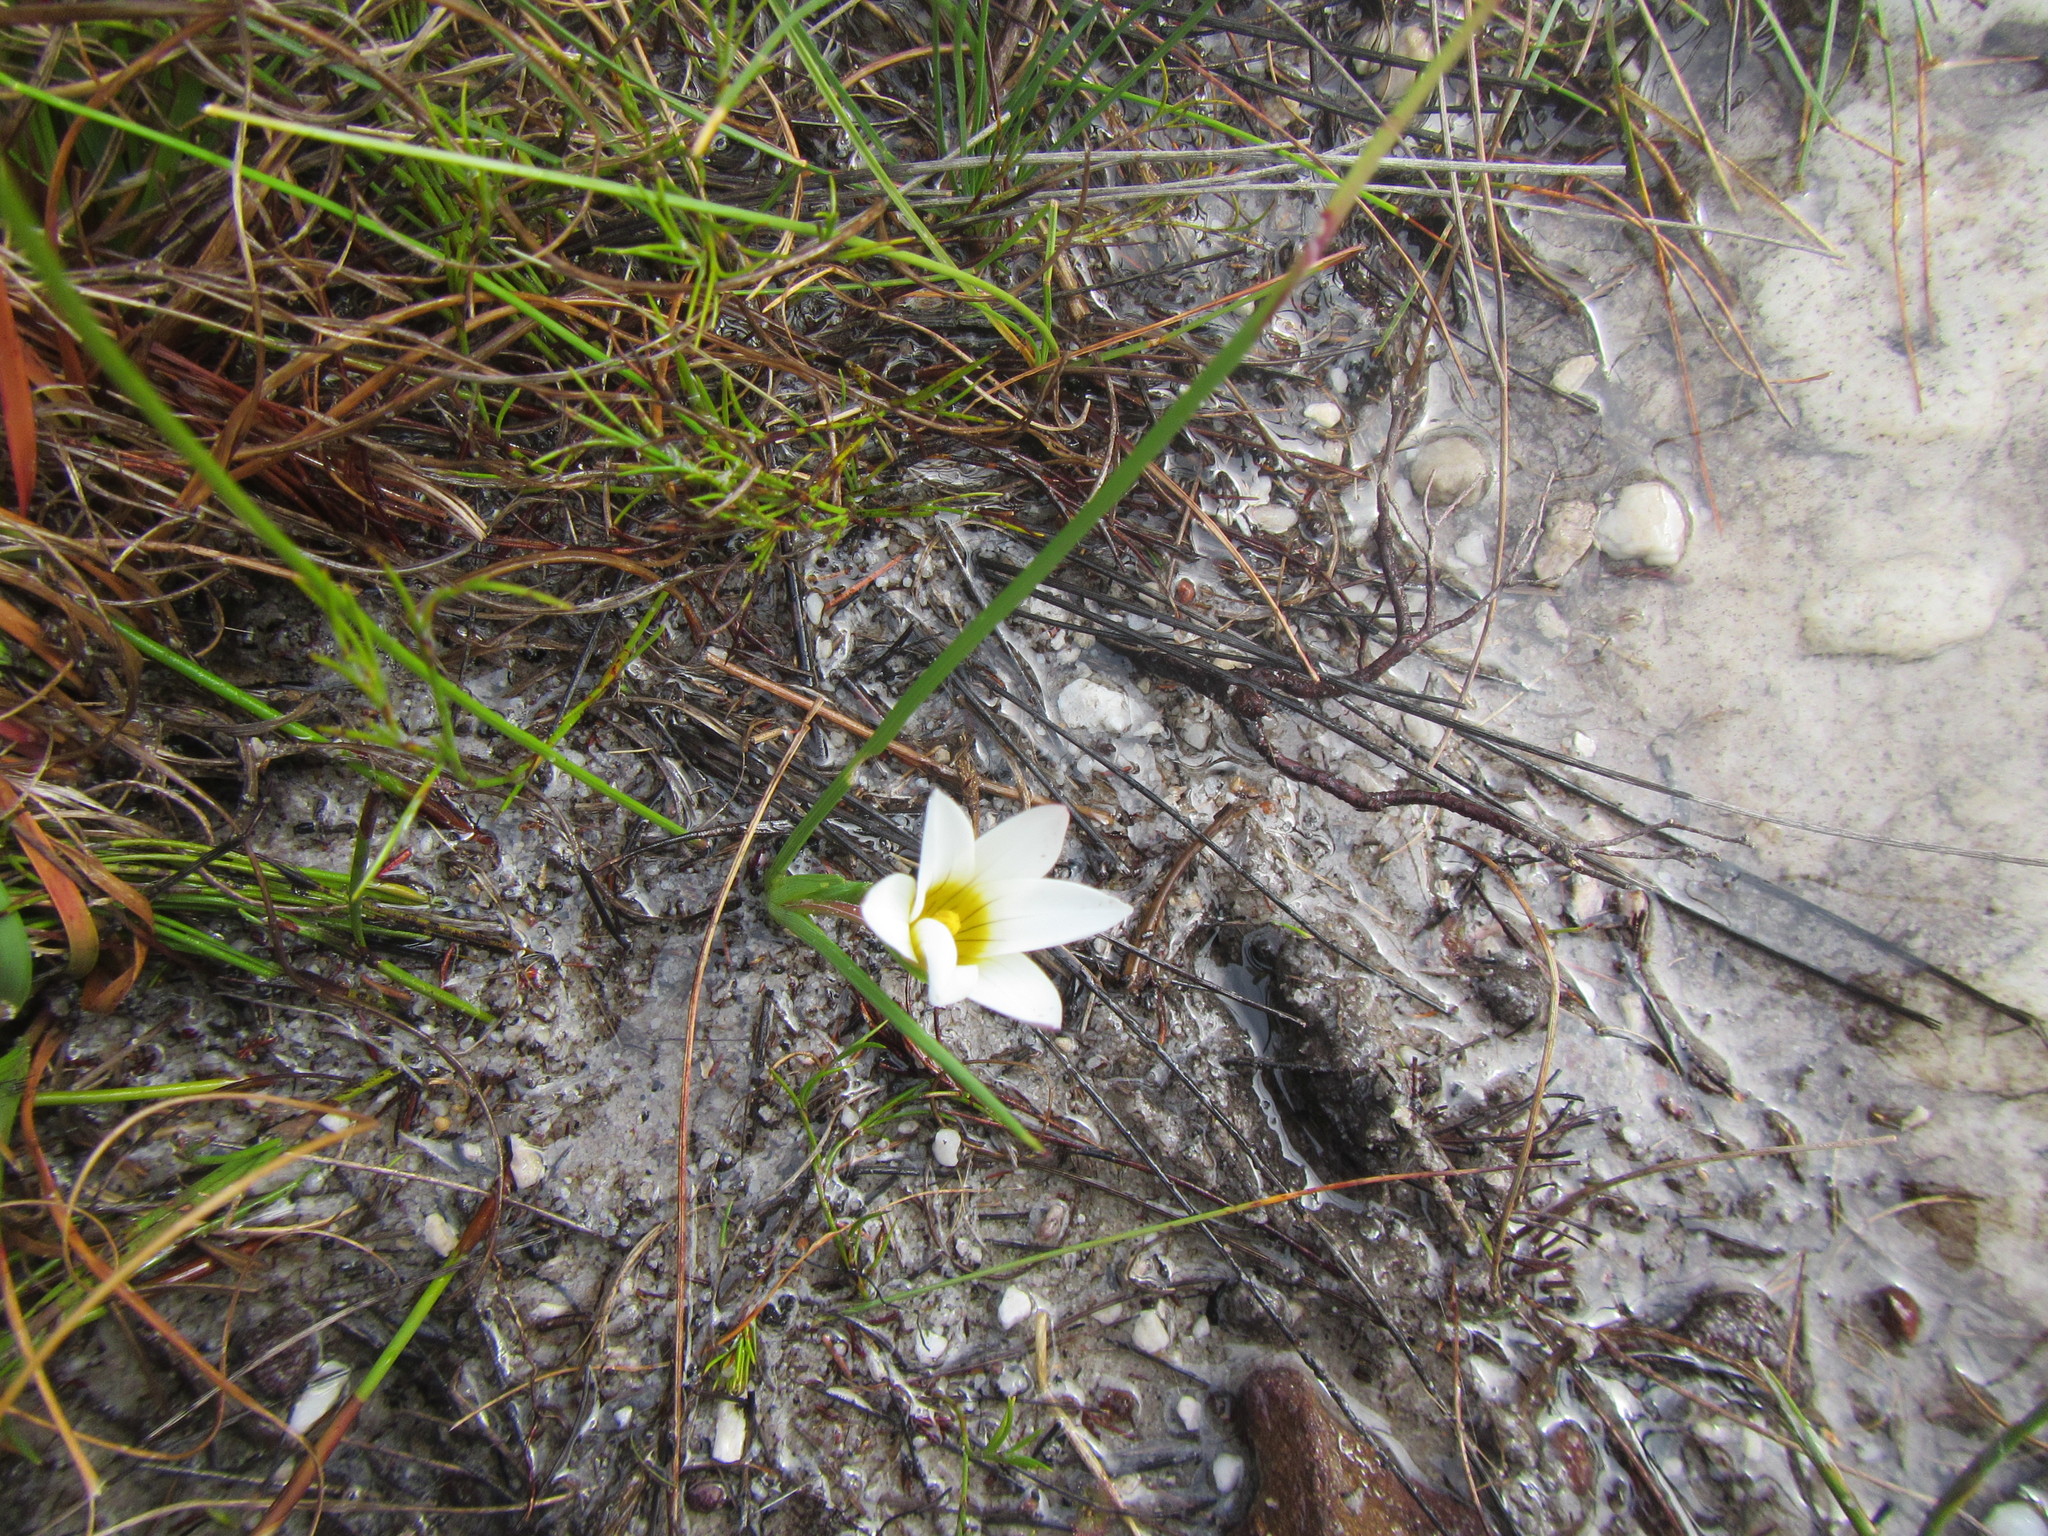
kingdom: Plantae
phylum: Tracheophyta
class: Liliopsida
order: Asparagales
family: Iridaceae
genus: Romulea
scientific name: Romulea flava
